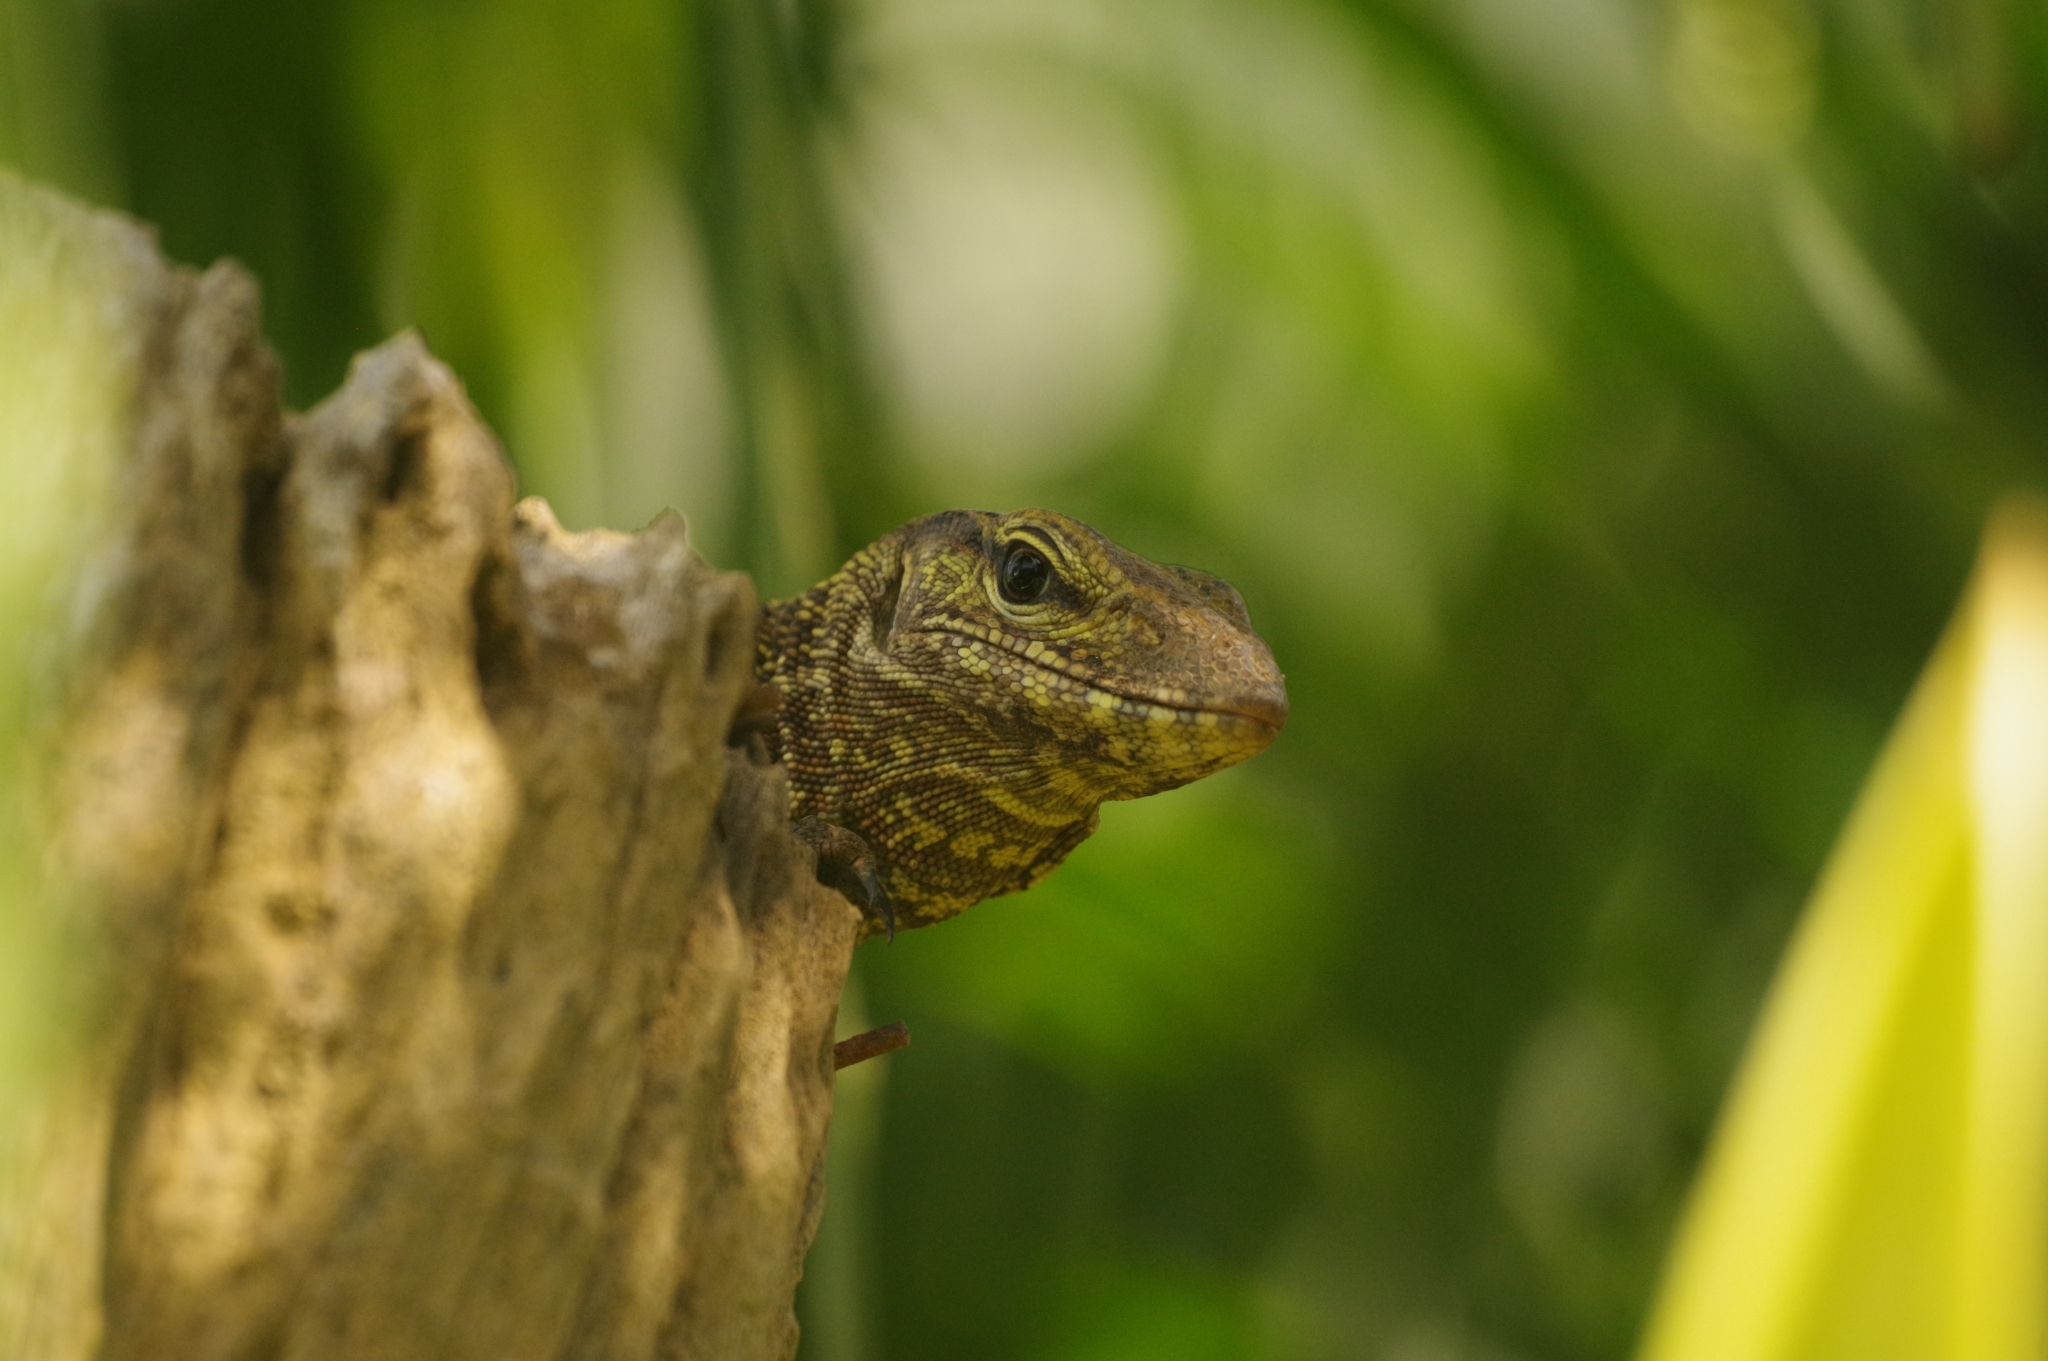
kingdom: Animalia
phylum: Chordata
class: Squamata
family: Varanidae
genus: Varanus
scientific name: Varanus nebulosus
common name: Clouded monitor
